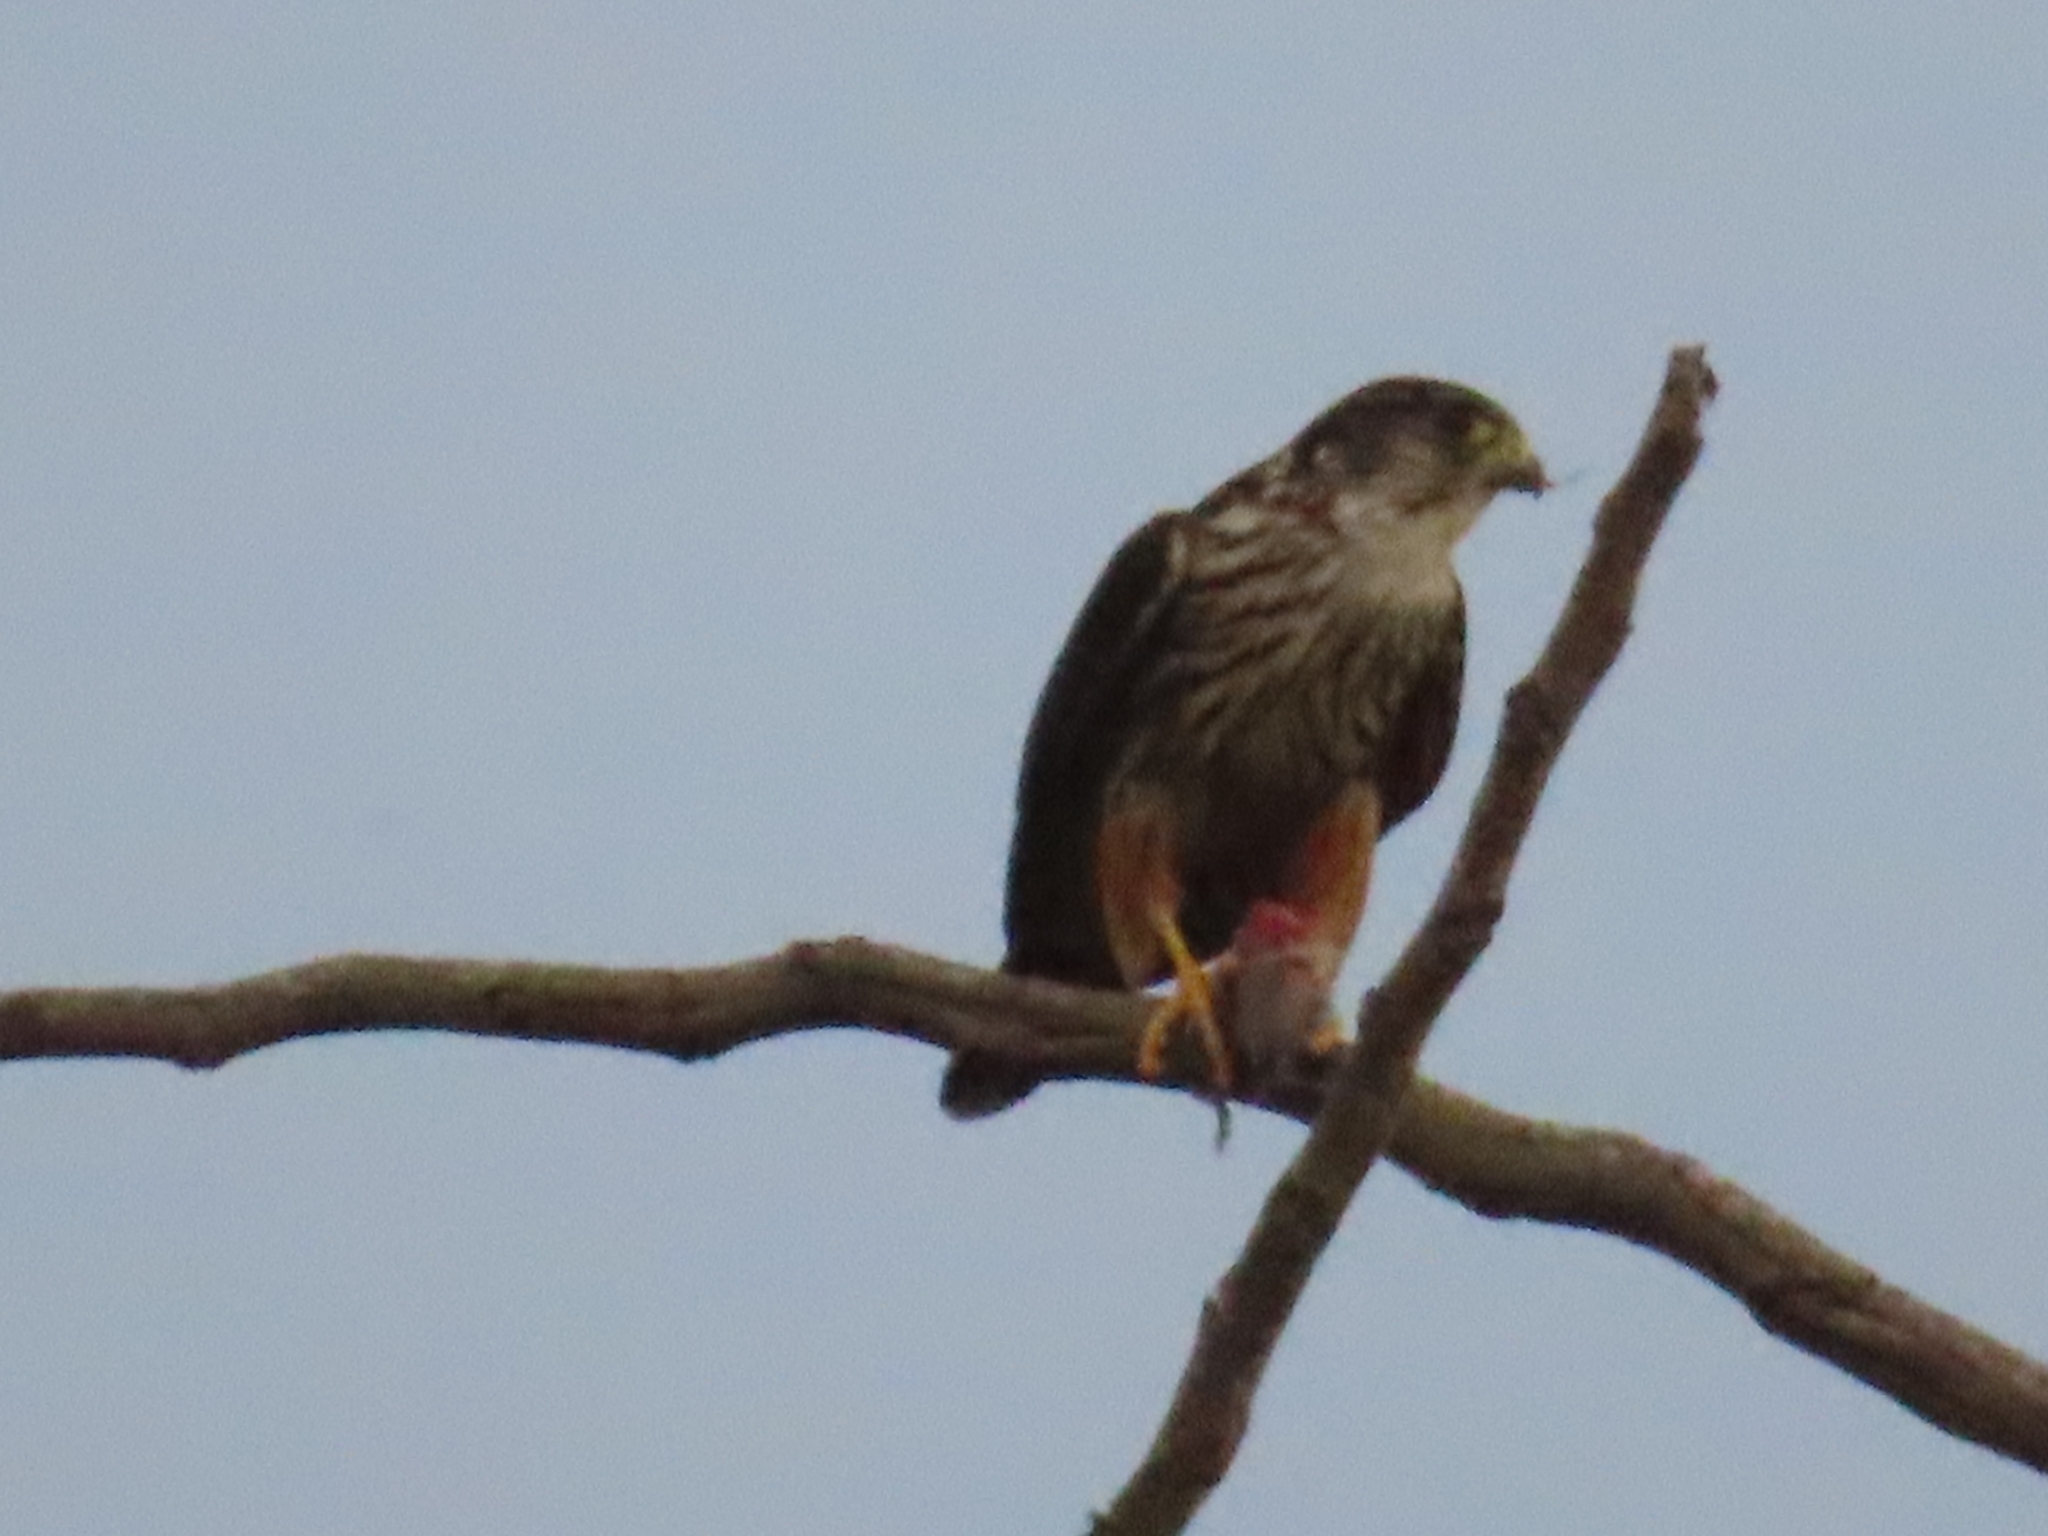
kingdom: Animalia
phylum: Chordata
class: Aves
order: Falconiformes
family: Falconidae
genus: Falco
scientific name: Falco columbarius
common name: Merlin
